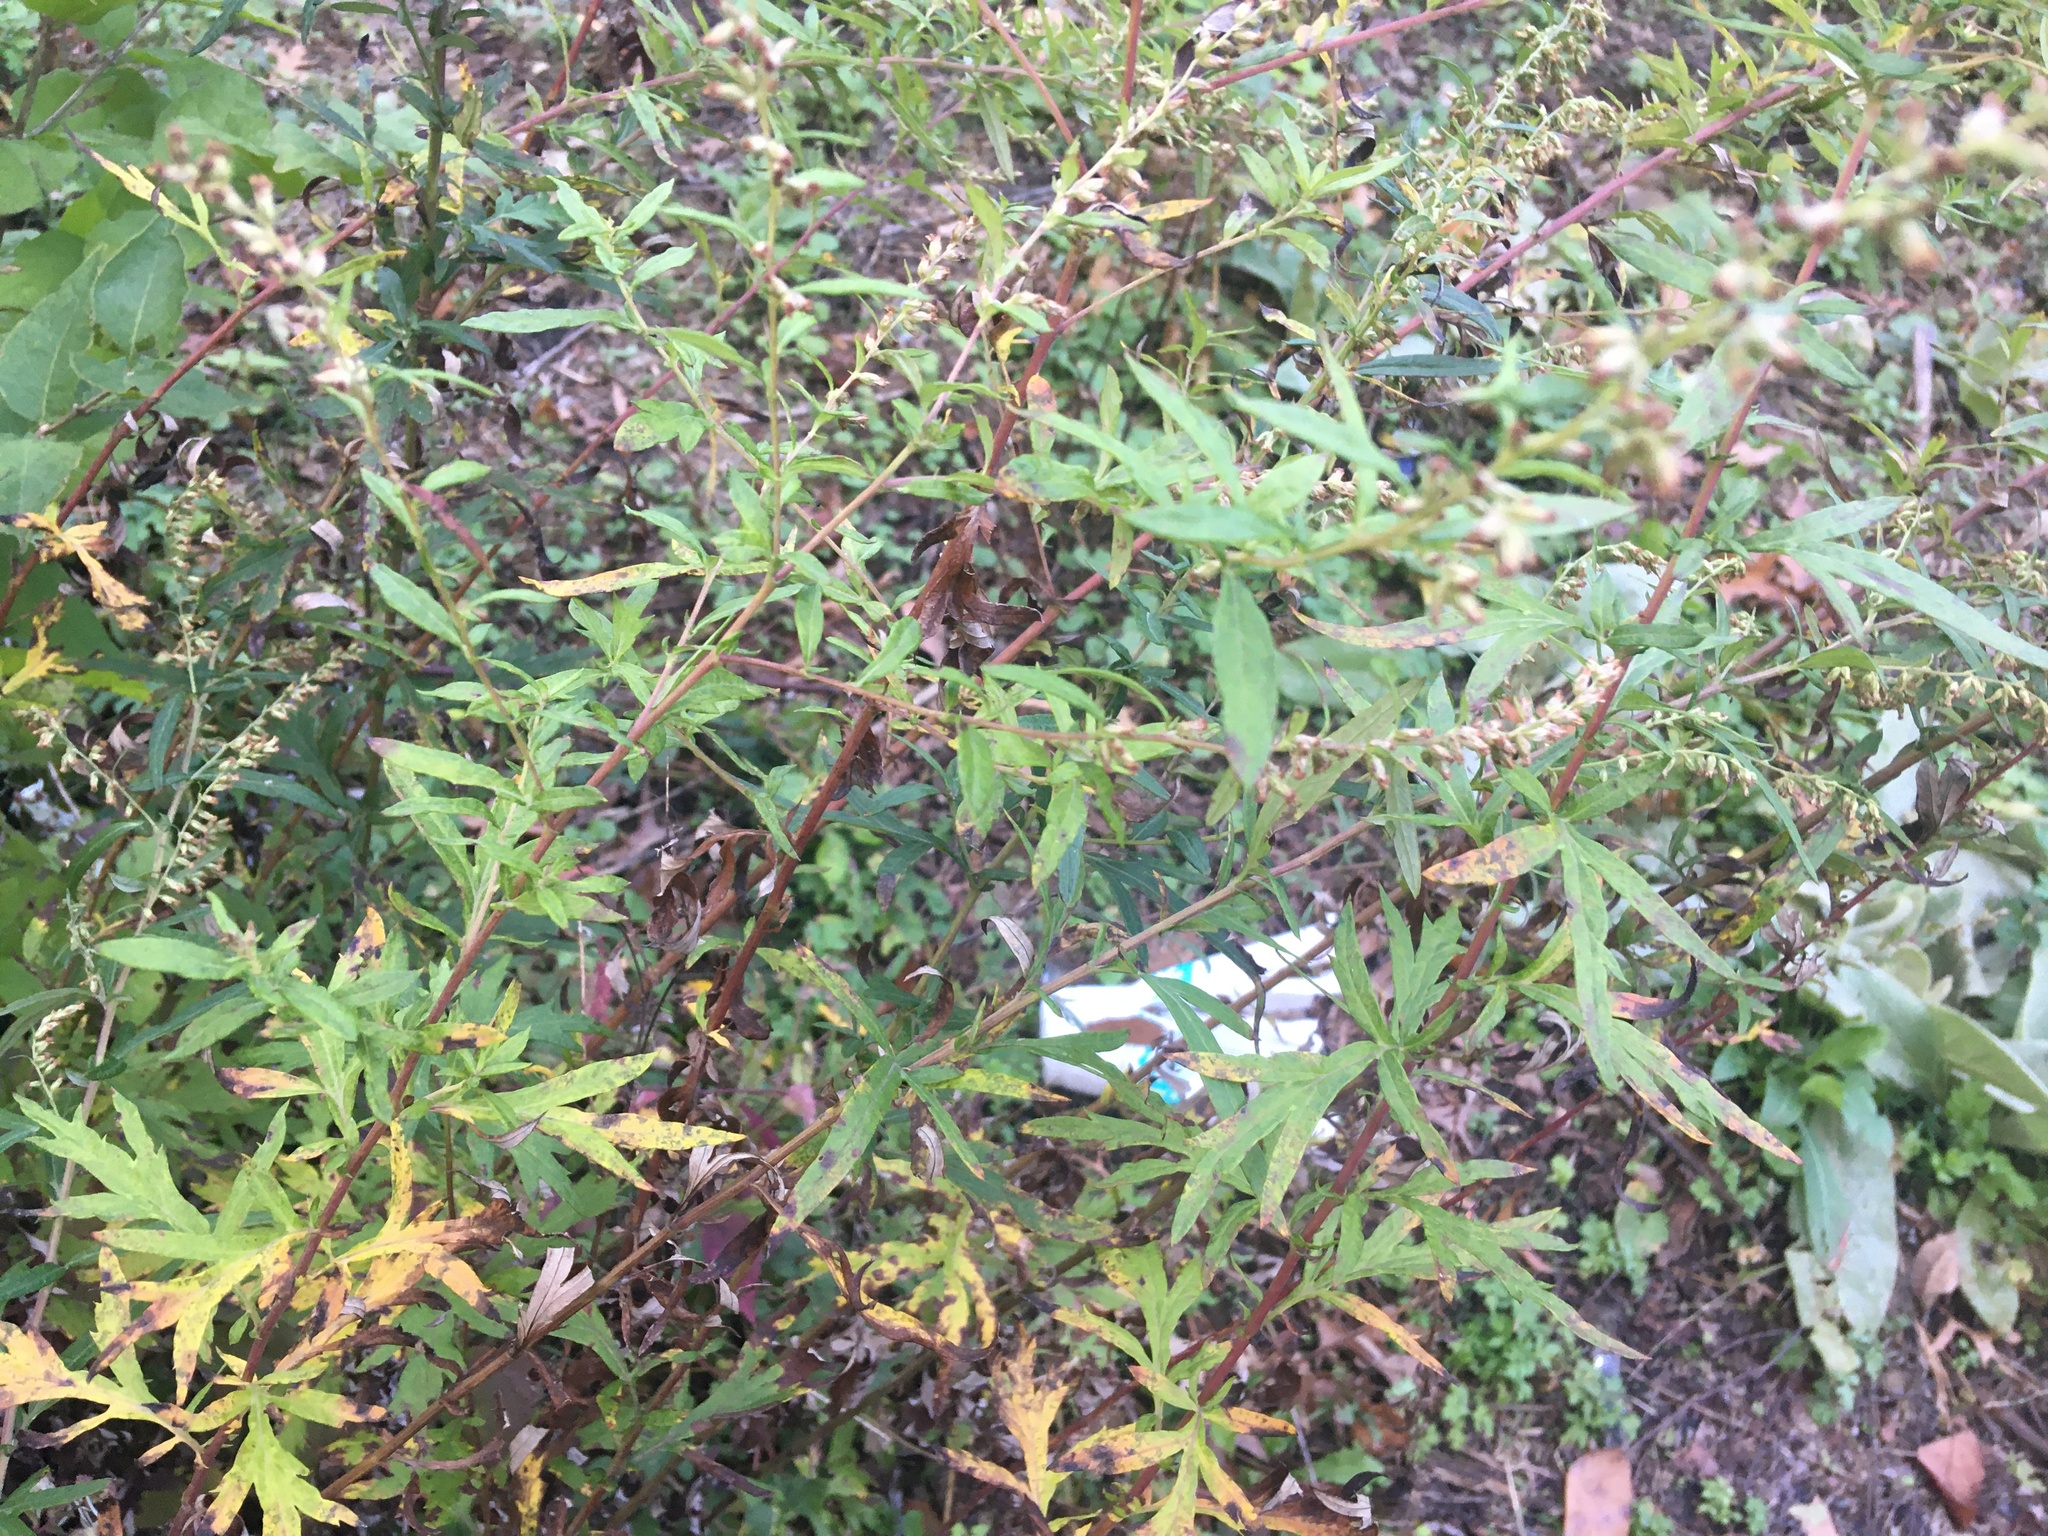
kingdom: Plantae
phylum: Tracheophyta
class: Magnoliopsida
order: Asterales
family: Asteraceae
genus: Artemisia
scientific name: Artemisia vulgaris
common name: Mugwort
